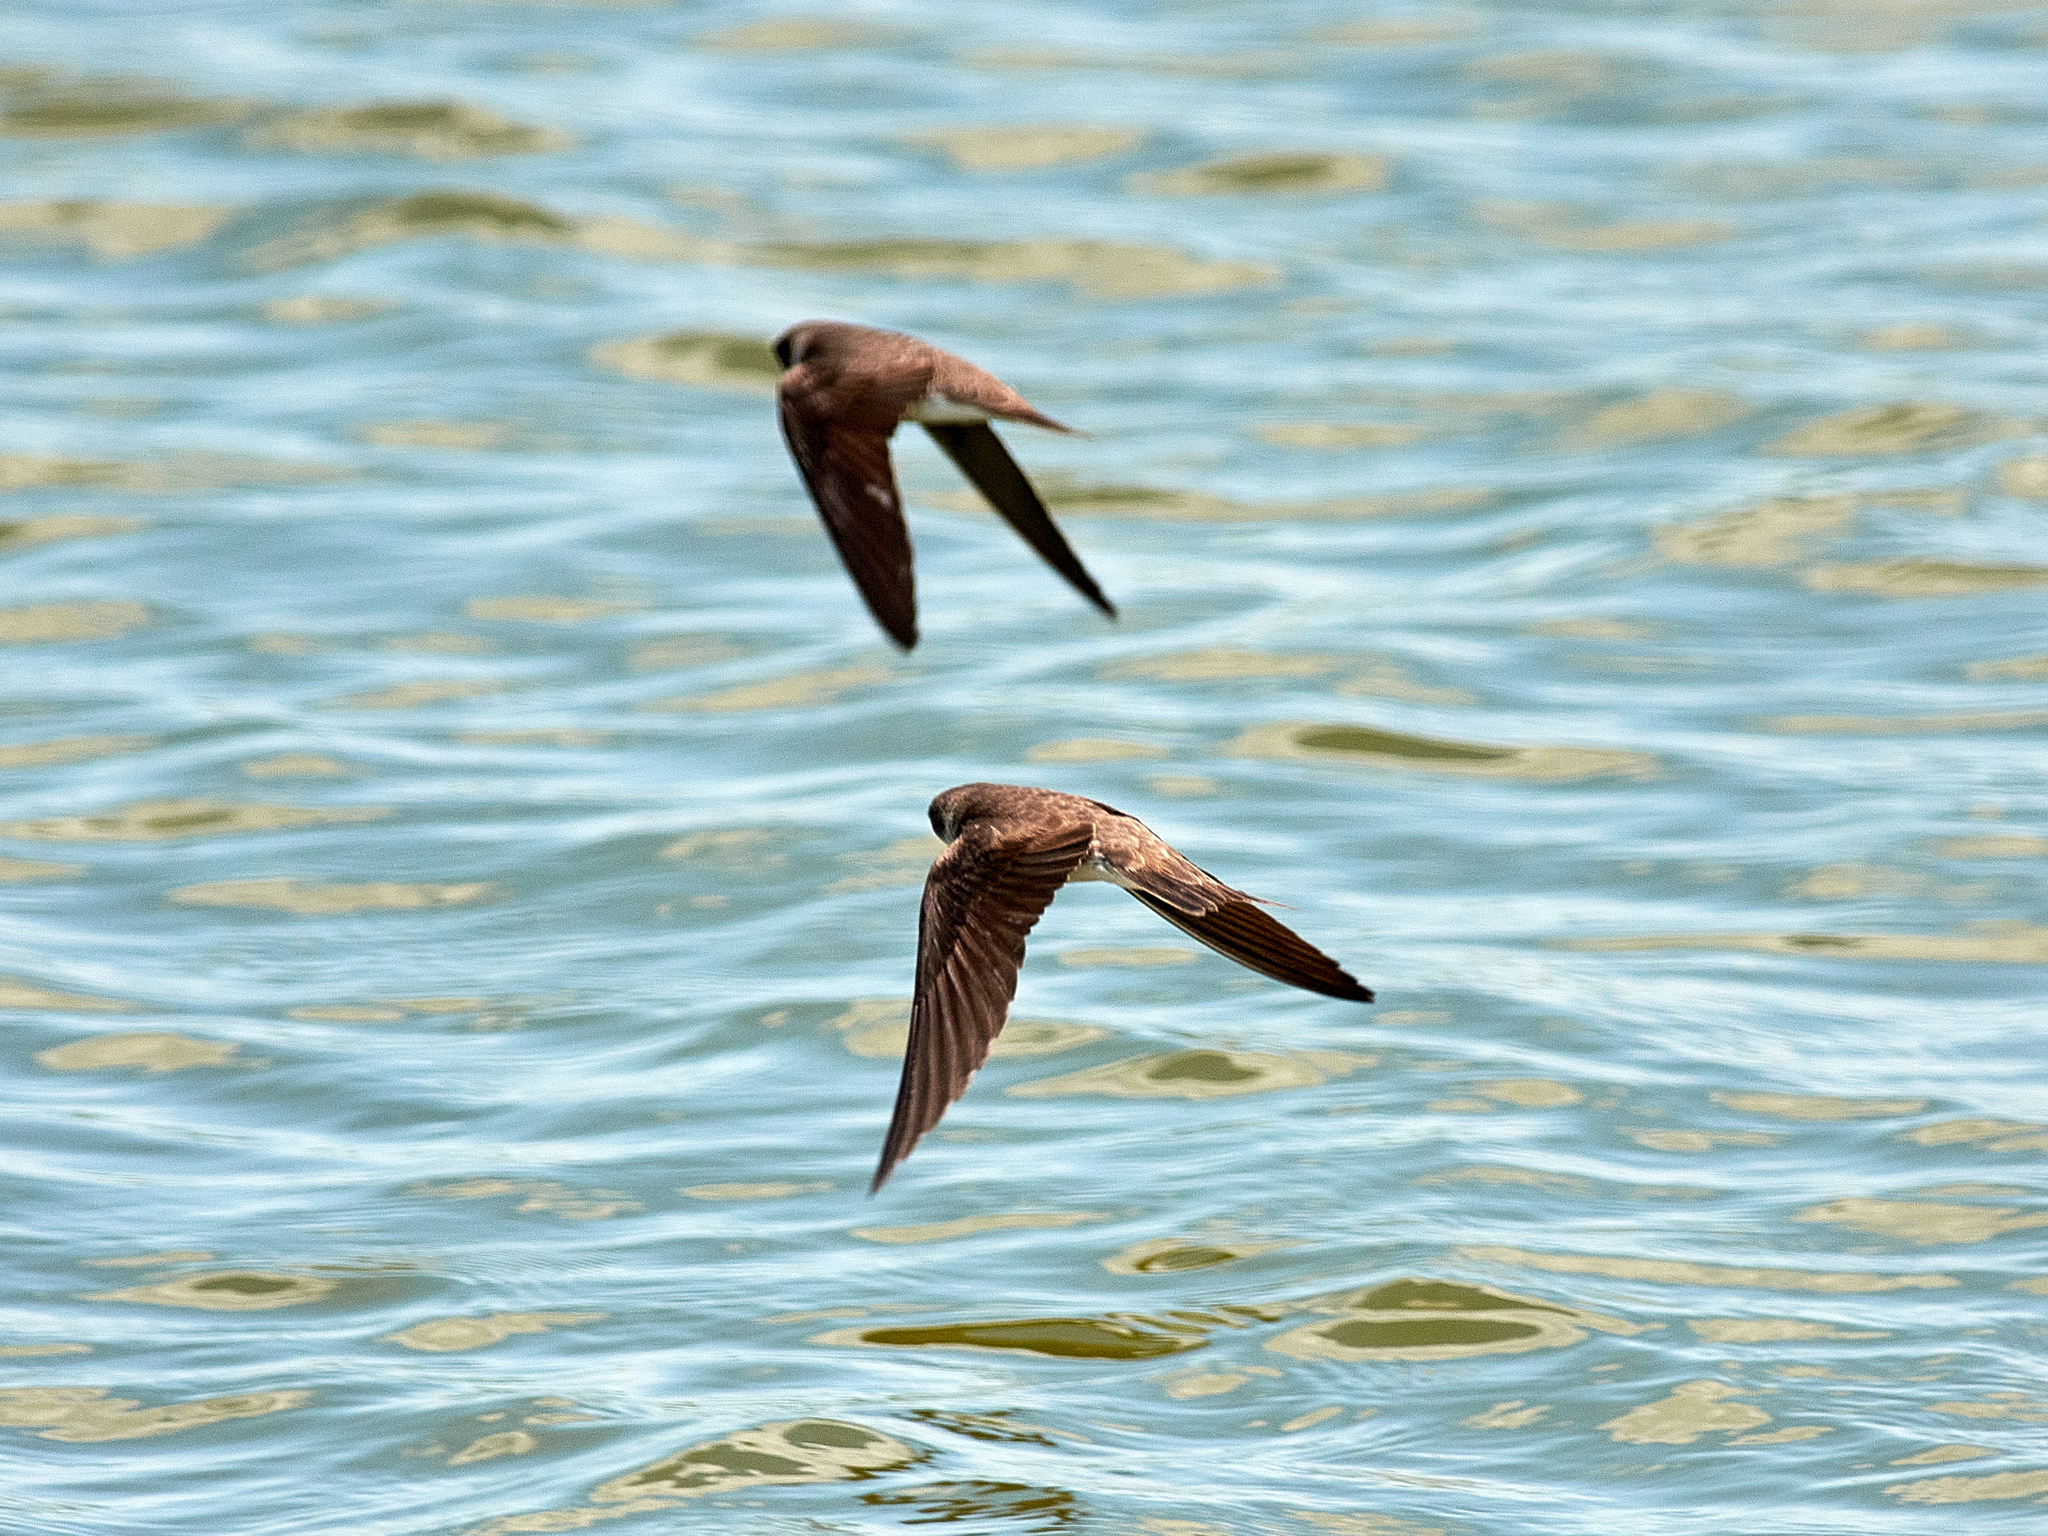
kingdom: Animalia
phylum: Chordata
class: Aves
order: Passeriformes
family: Hirundinidae
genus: Riparia
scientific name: Riparia riparia
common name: Sand martin
